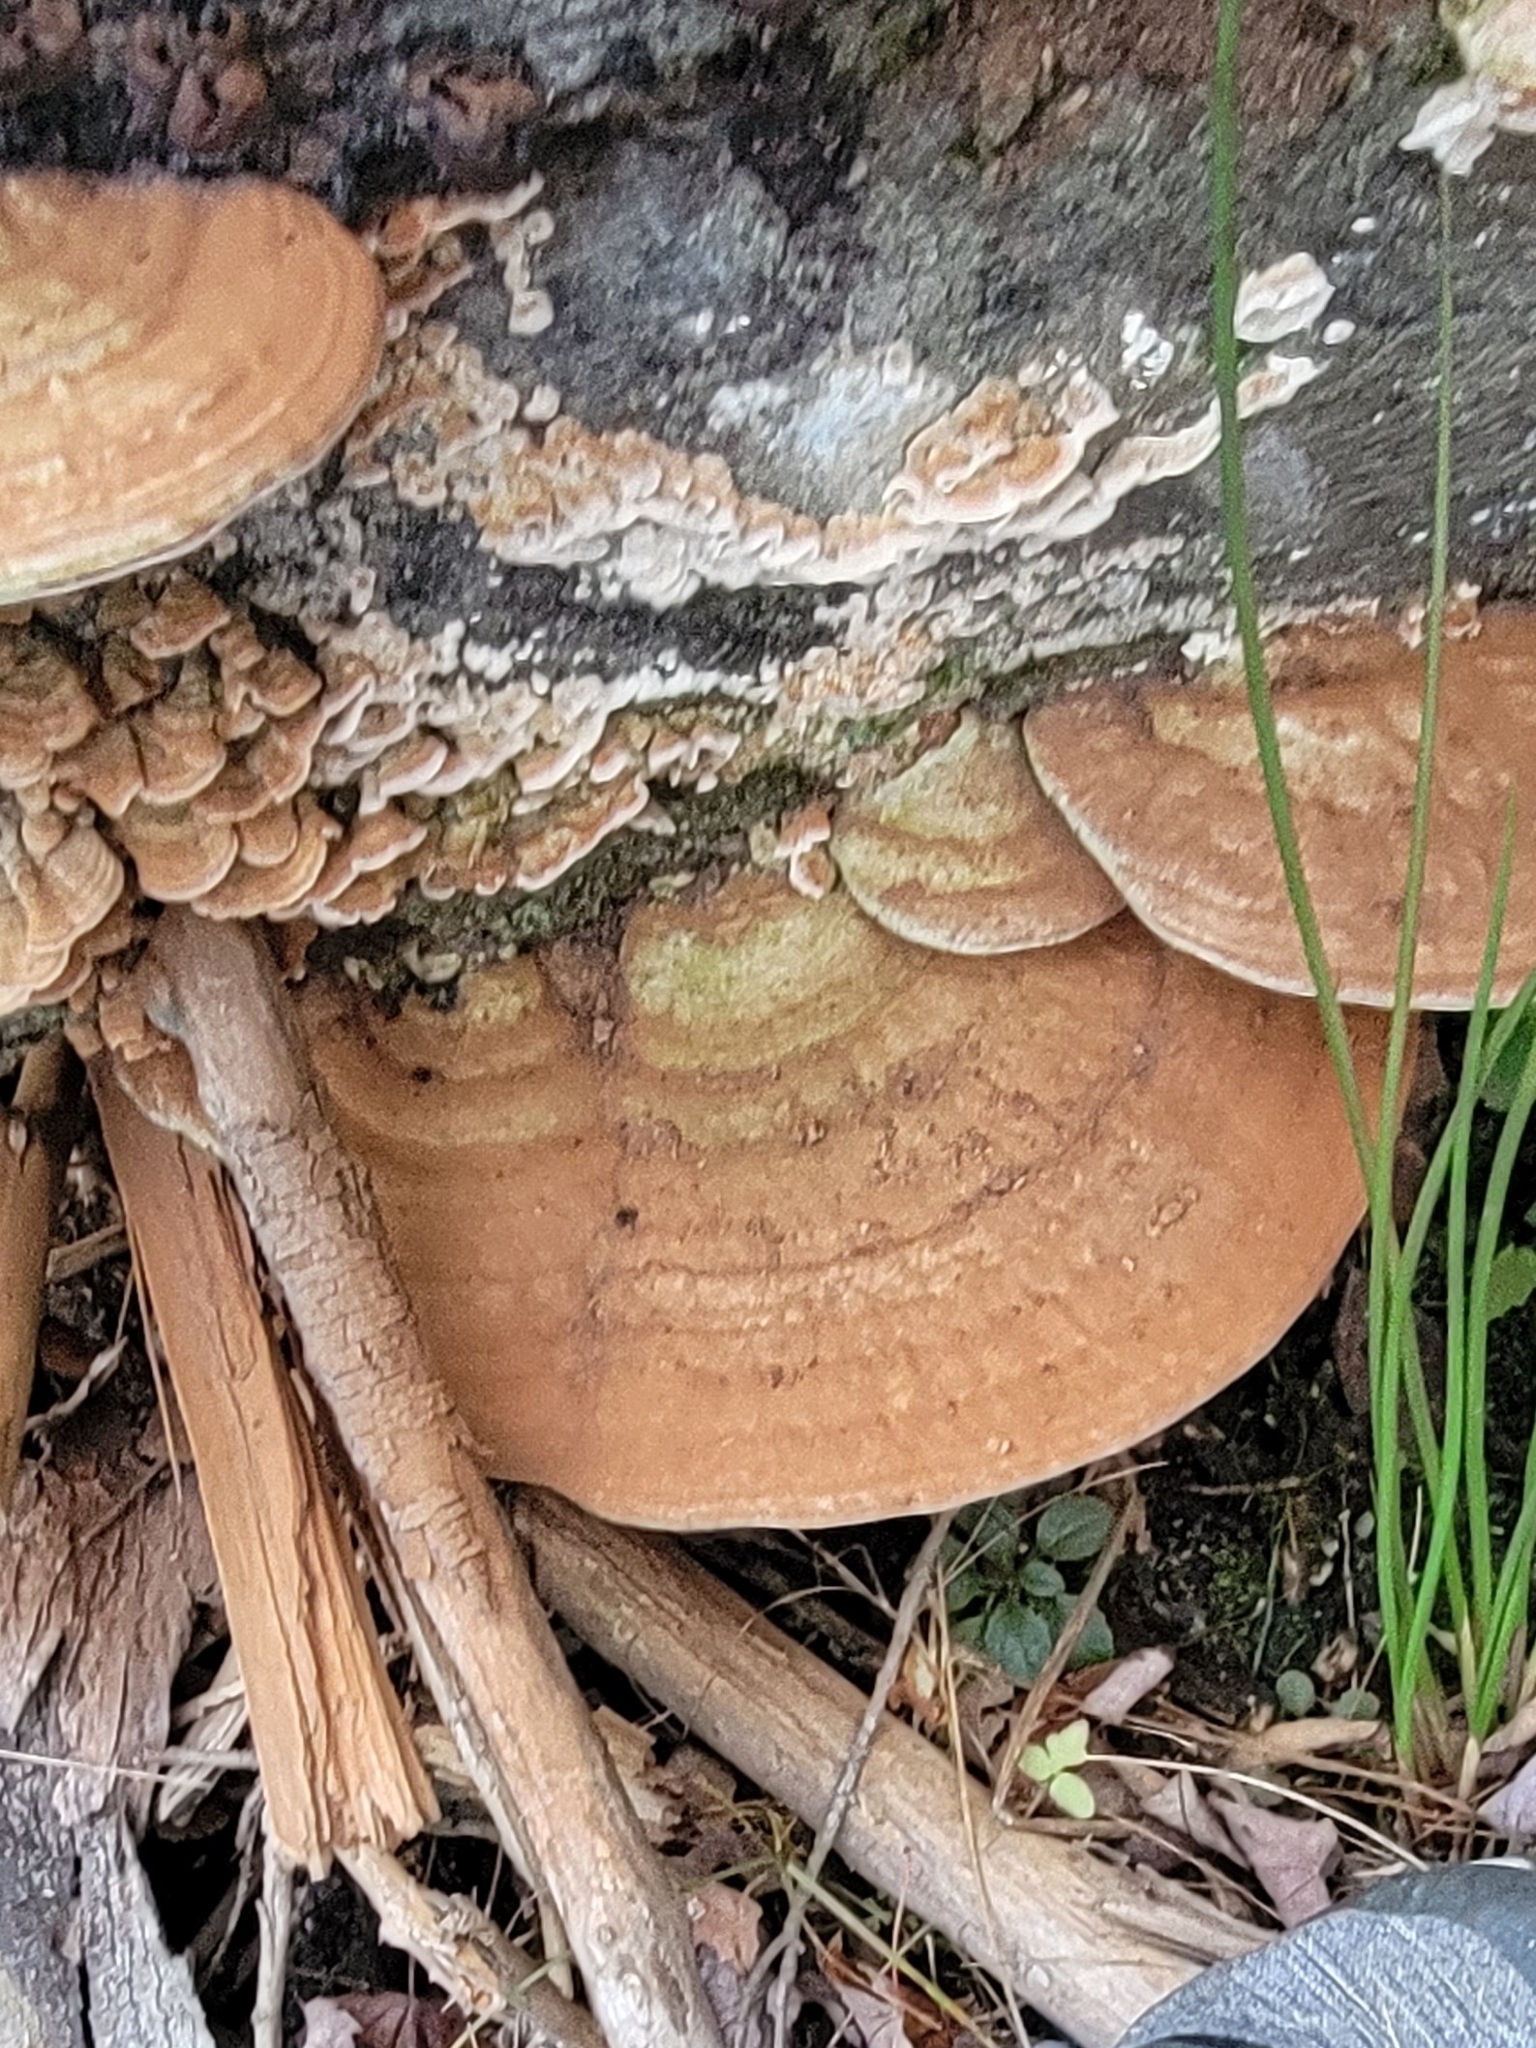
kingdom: Fungi
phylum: Basidiomycota
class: Agaricomycetes
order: Polyporales
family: Polyporaceae
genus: Ganoderma
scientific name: Ganoderma applanatum
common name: Artist's bracket
